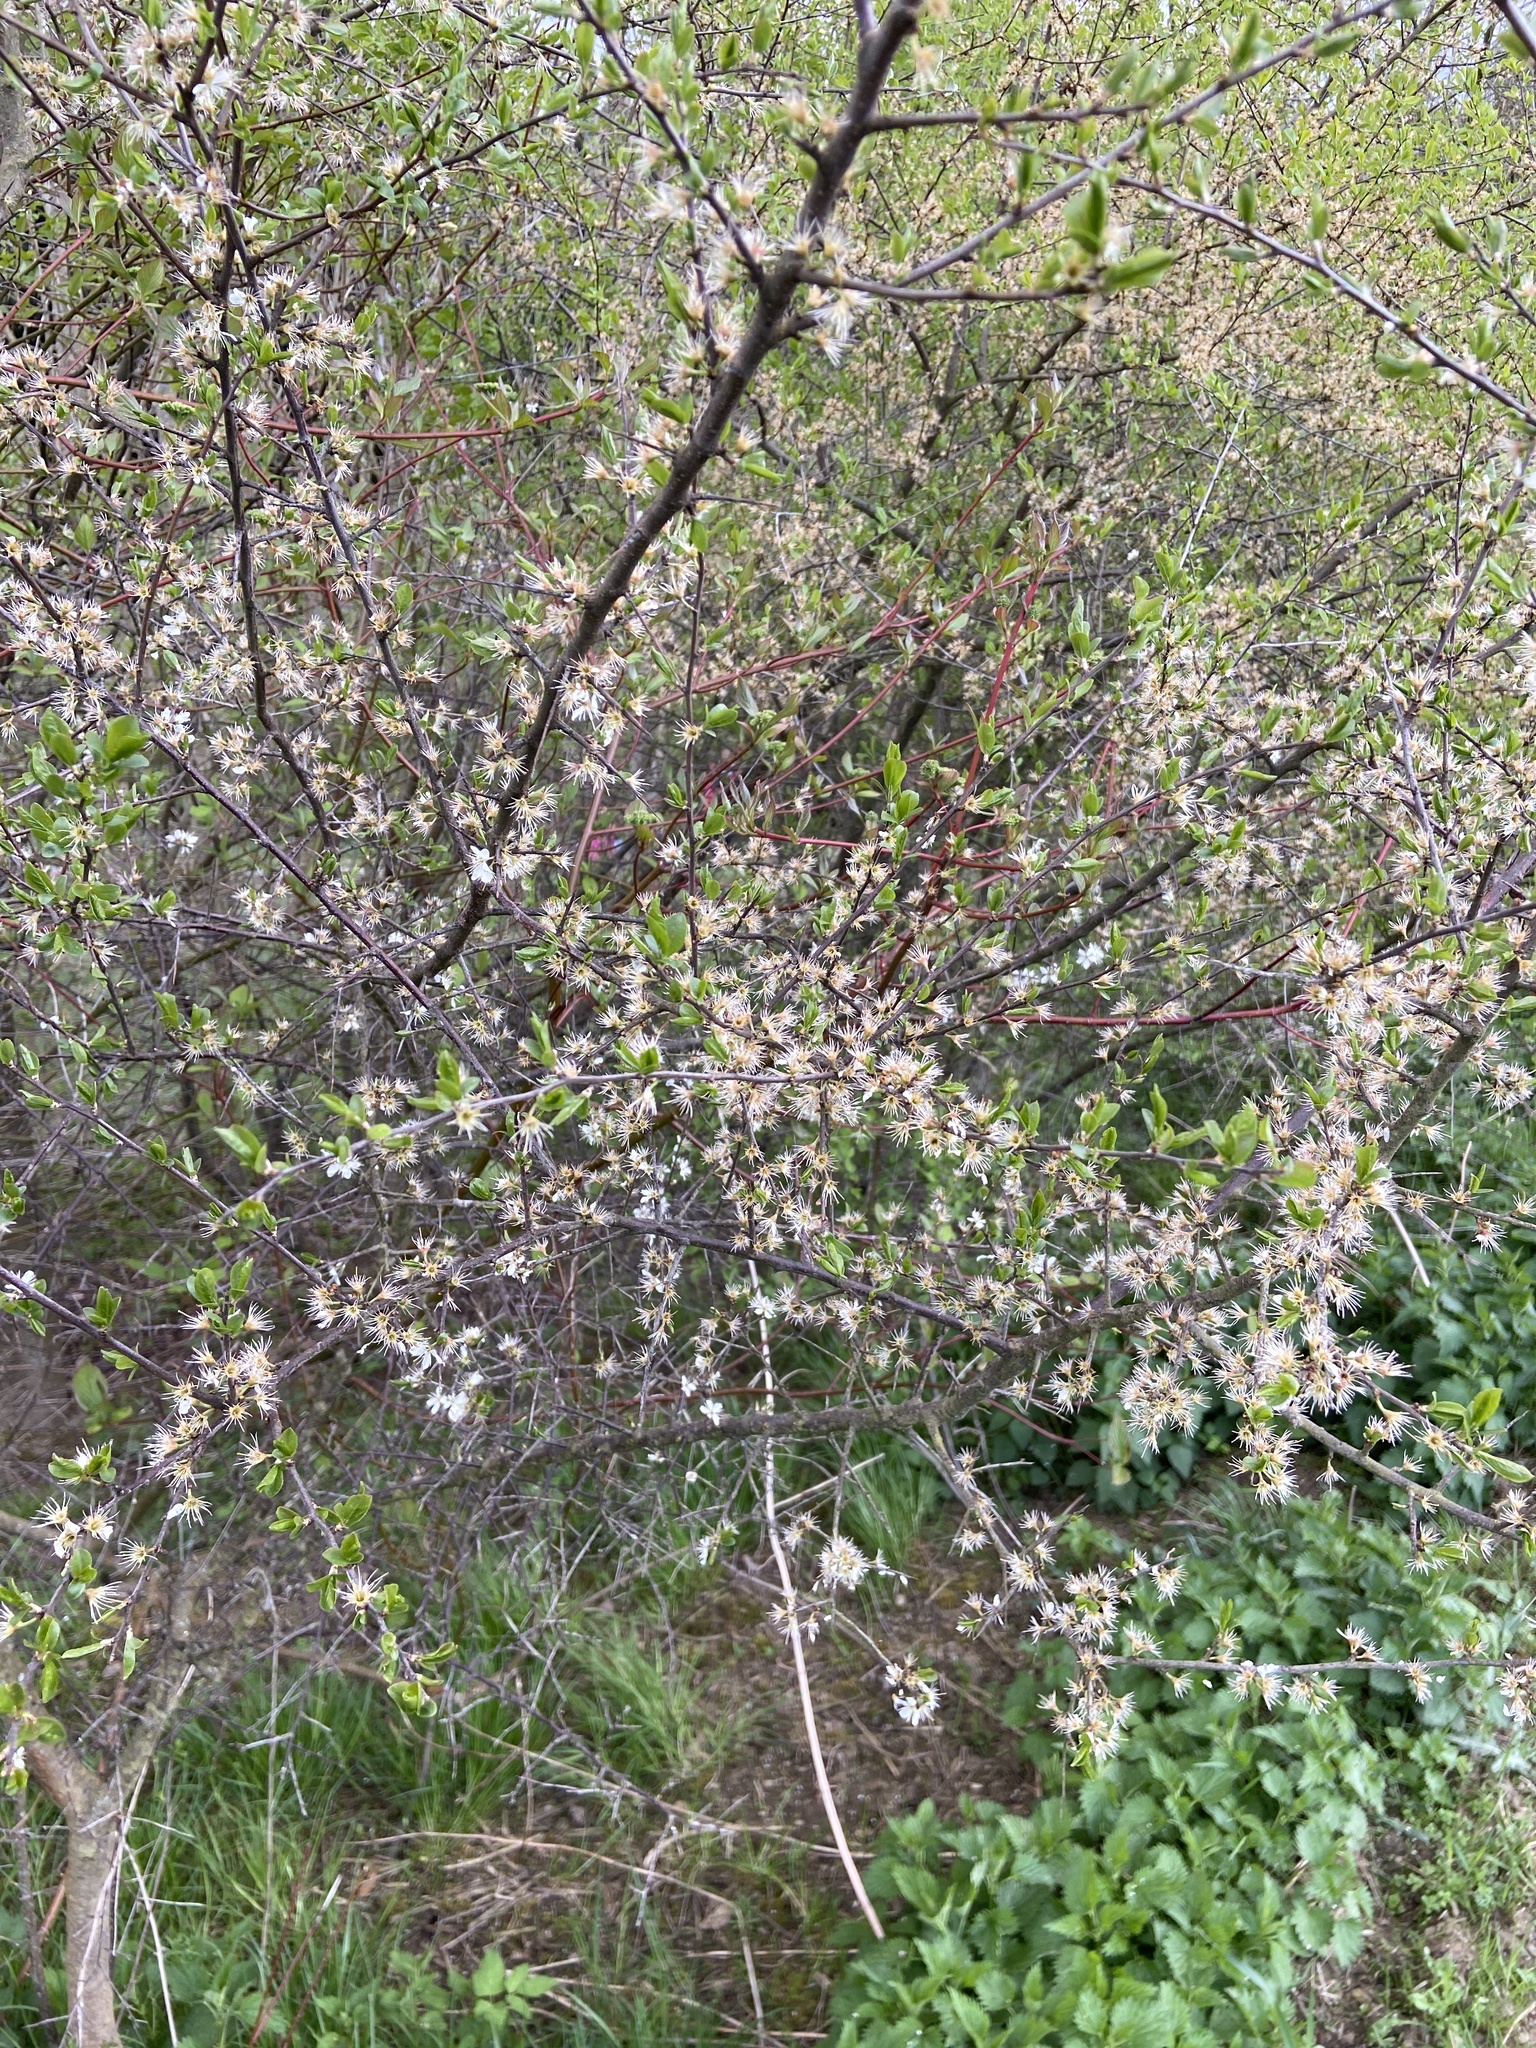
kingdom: Plantae
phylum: Tracheophyta
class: Magnoliopsida
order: Rosales
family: Rosaceae
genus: Prunus
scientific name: Prunus spinosa
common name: Blackthorn
